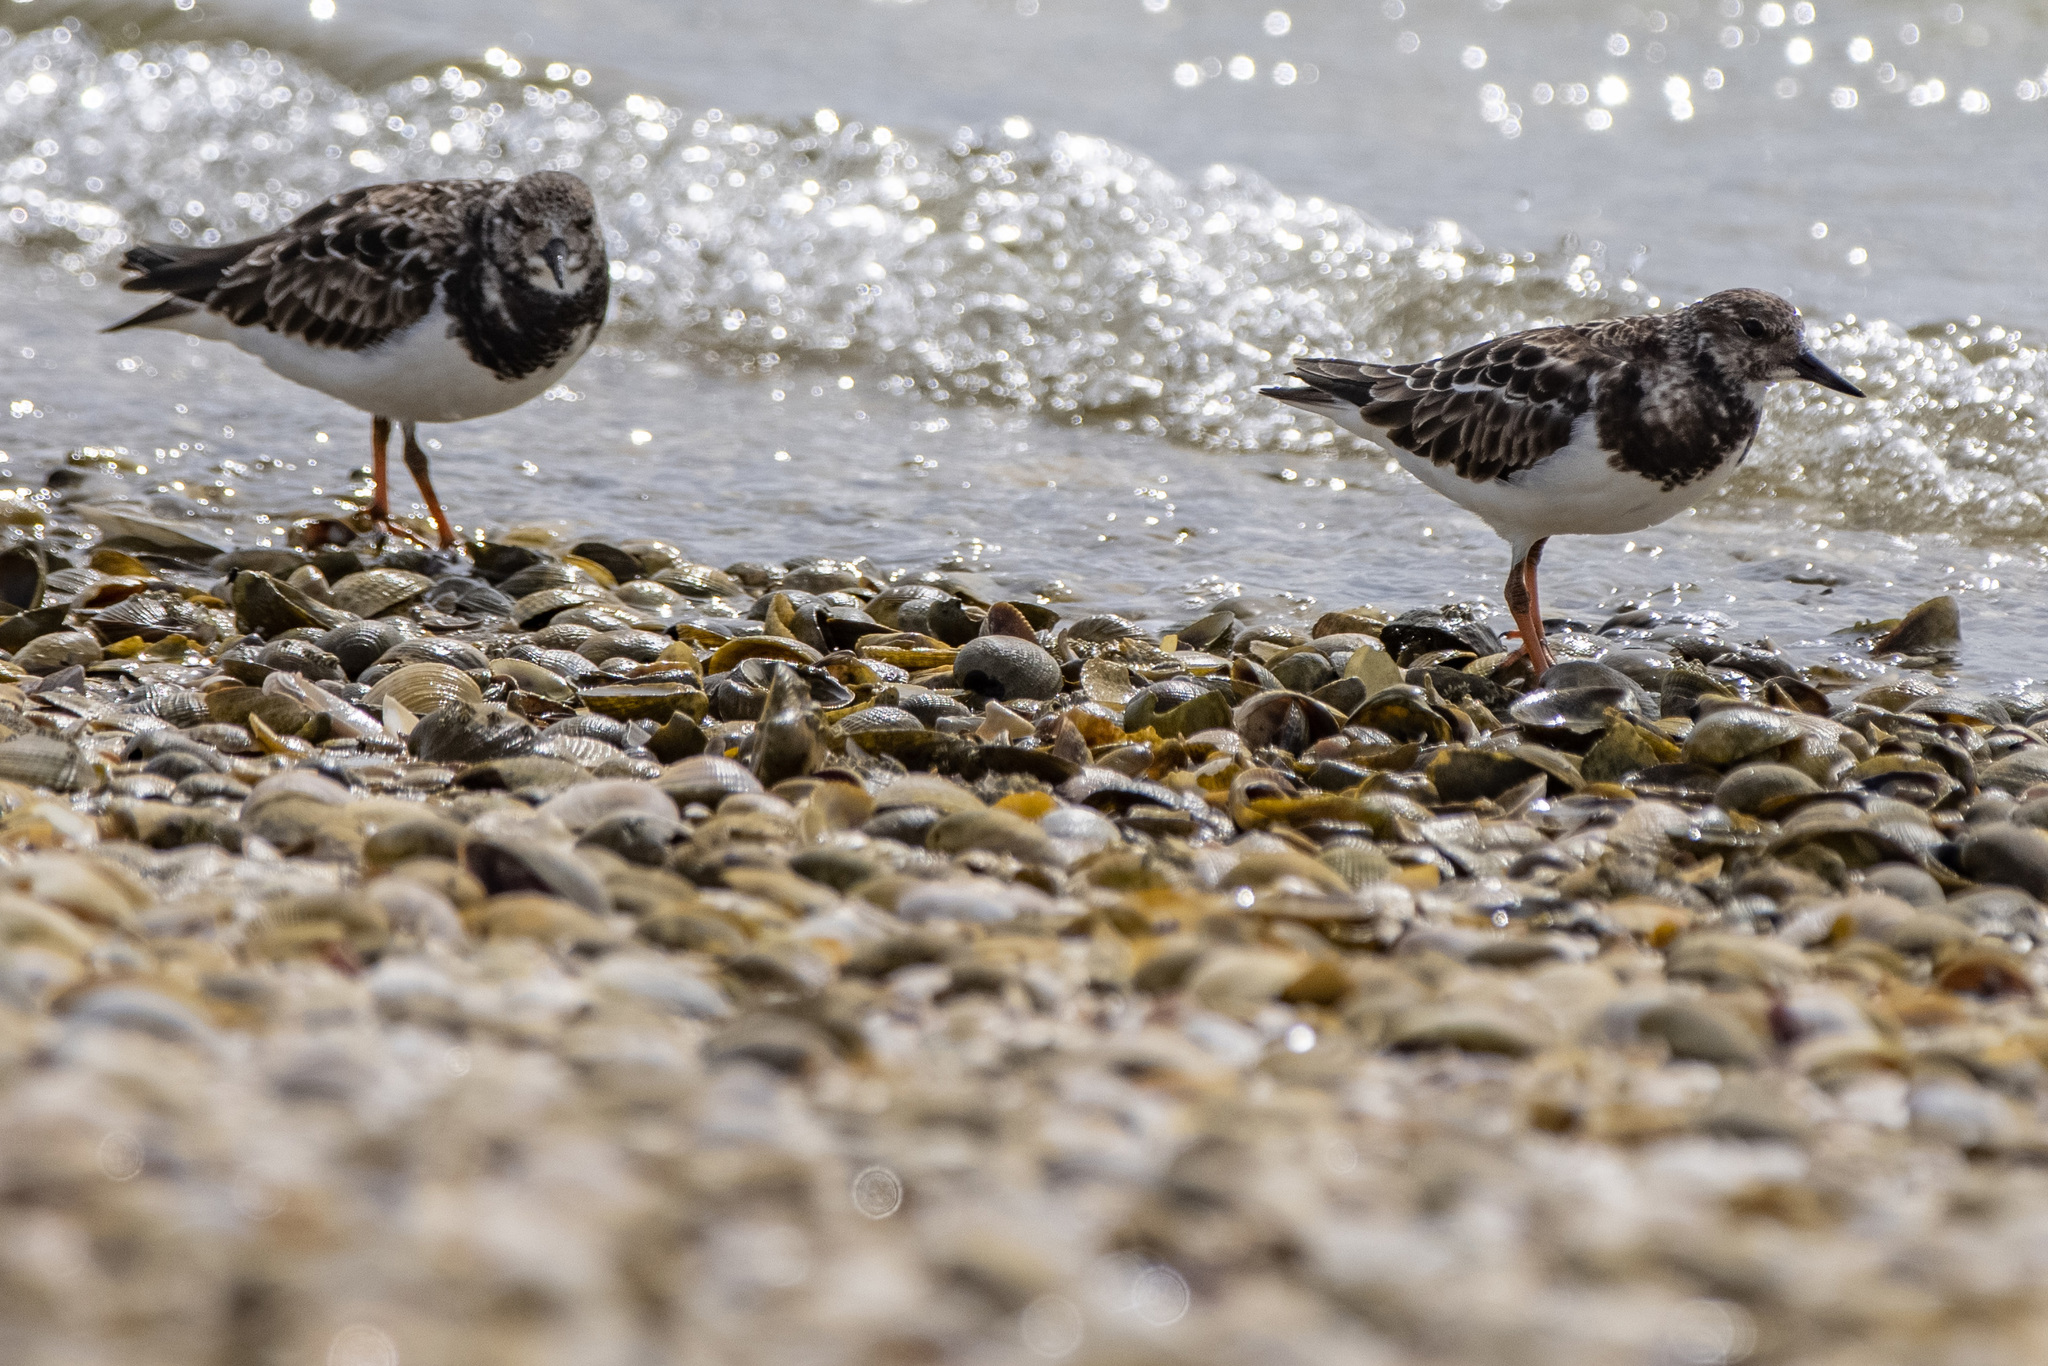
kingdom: Animalia
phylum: Chordata
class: Aves
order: Charadriiformes
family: Scolopacidae
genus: Arenaria
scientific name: Arenaria interpres
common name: Ruddy turnstone
